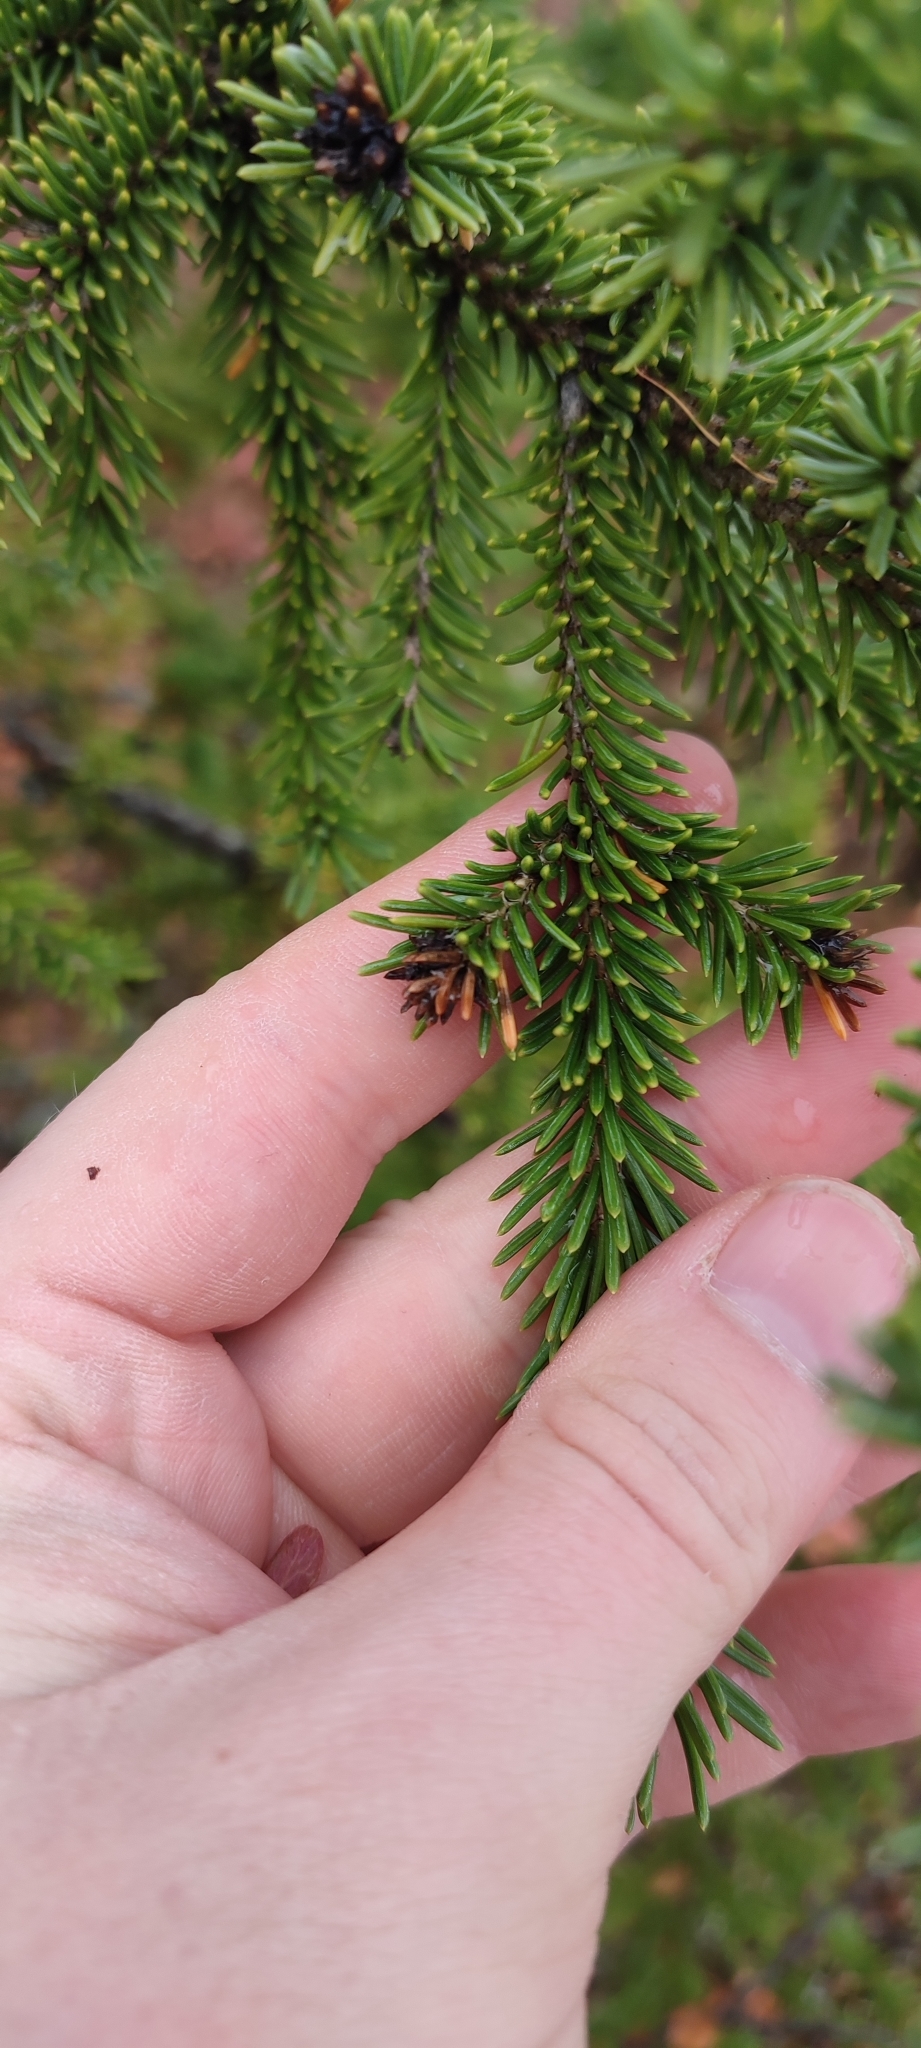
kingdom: Plantae
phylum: Tracheophyta
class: Pinopsida
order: Pinales
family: Pinaceae
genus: Picea
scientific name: Picea obovata
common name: Siberian spruce
